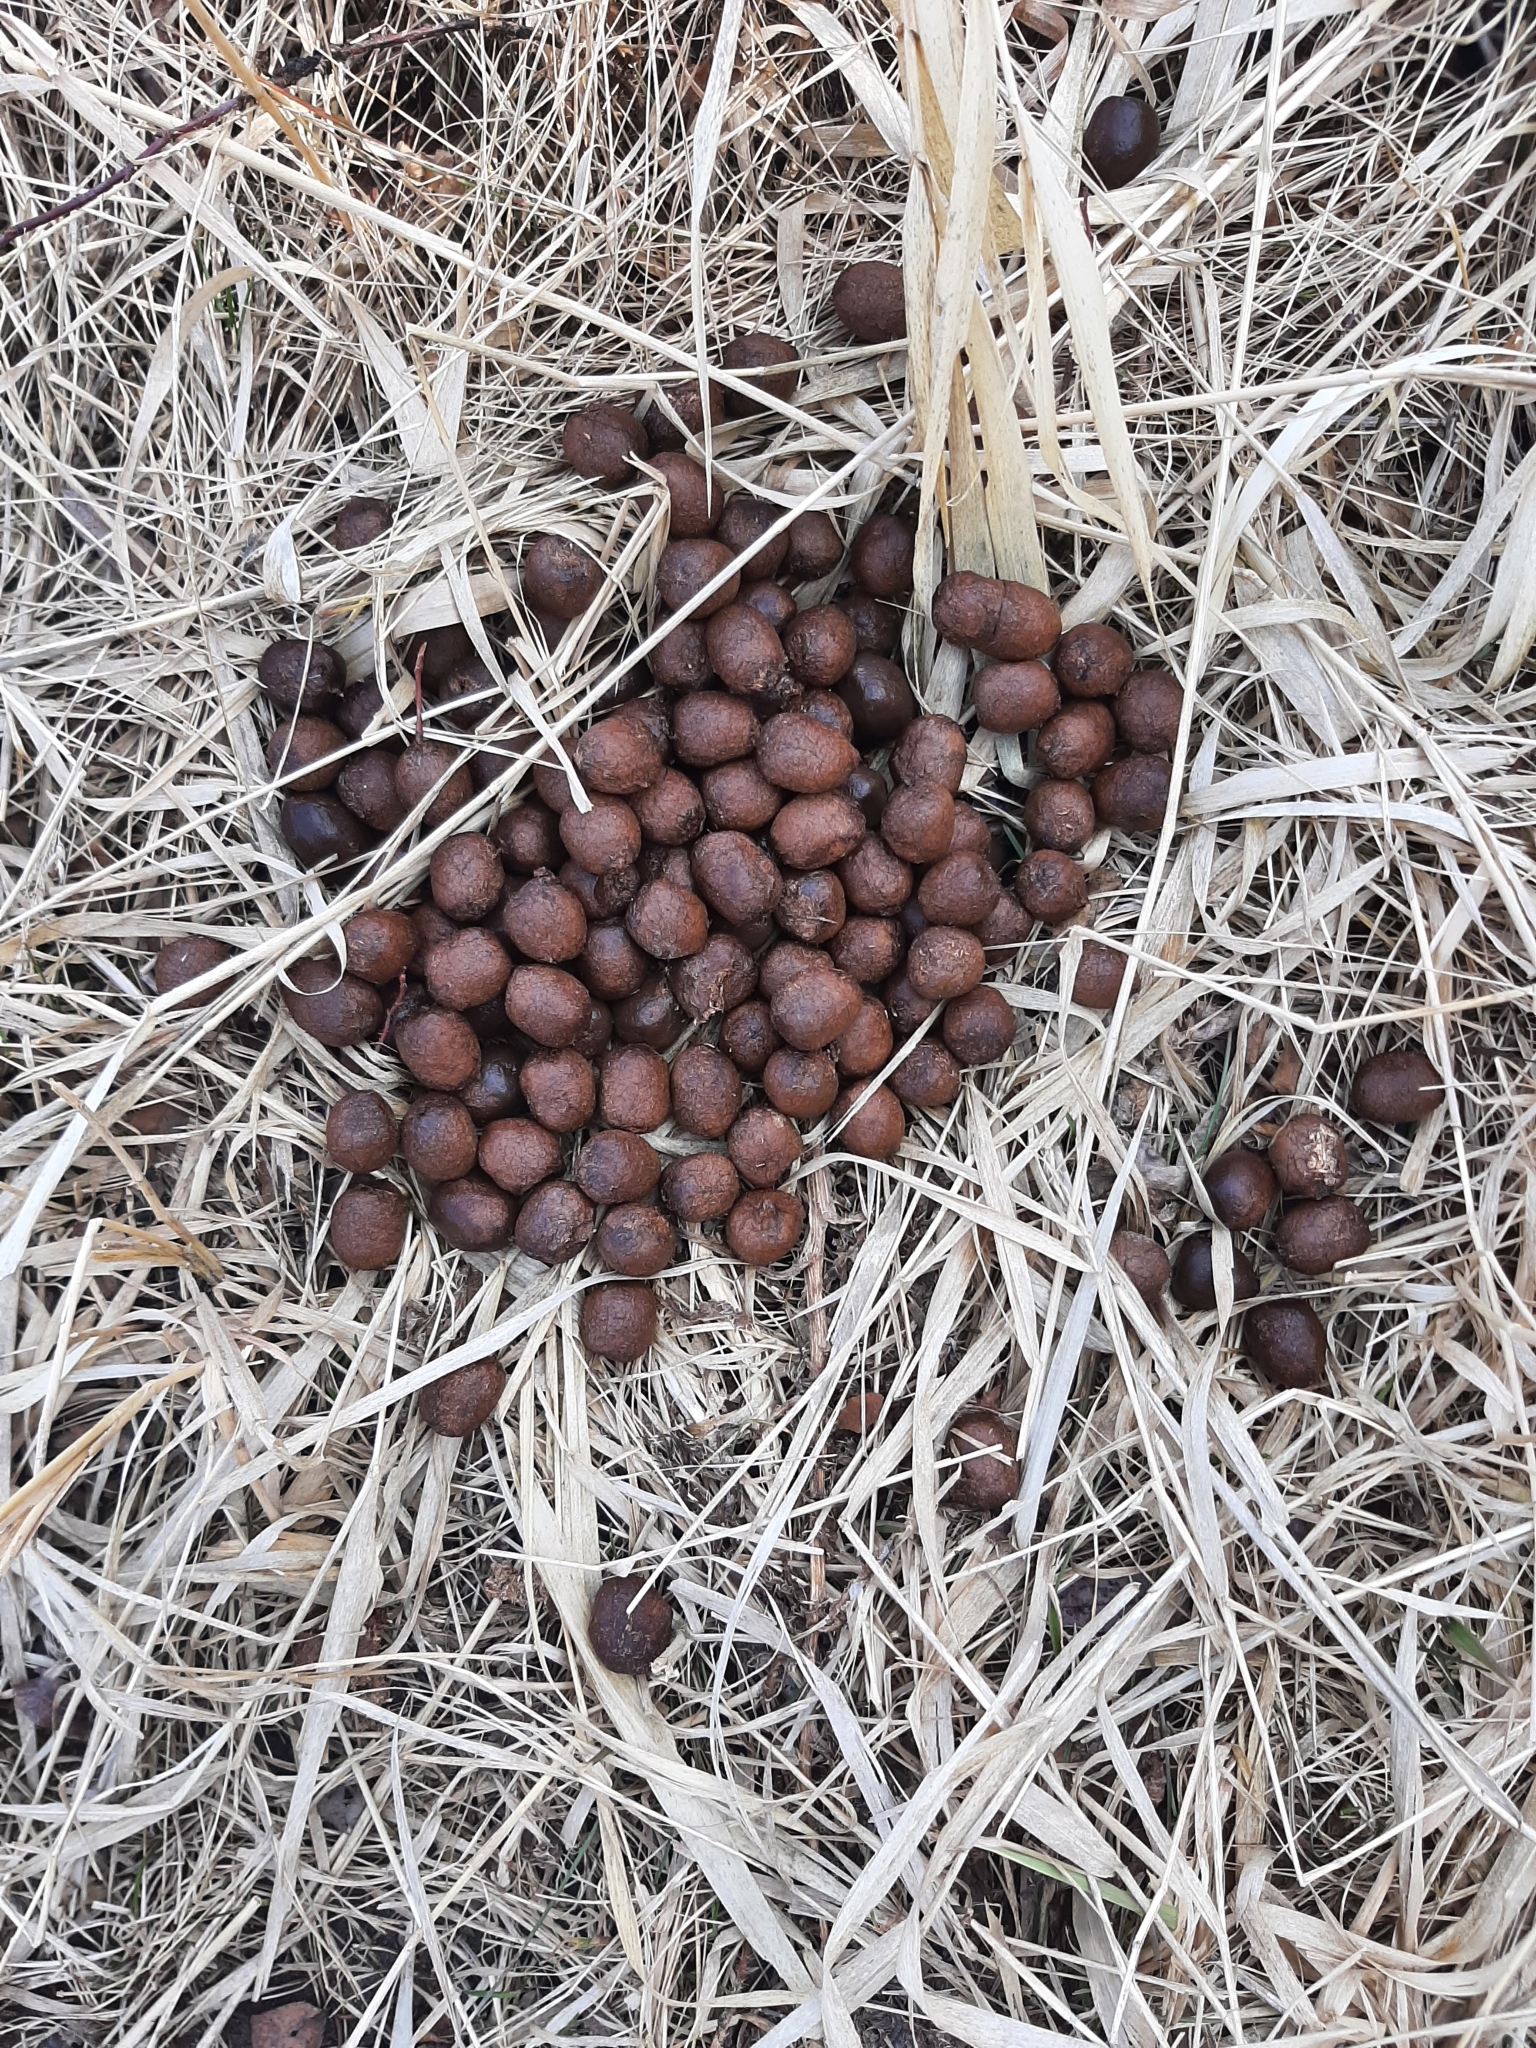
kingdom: Animalia
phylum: Chordata
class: Mammalia
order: Artiodactyla
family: Cervidae
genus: Alces
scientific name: Alces alces
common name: Moose
